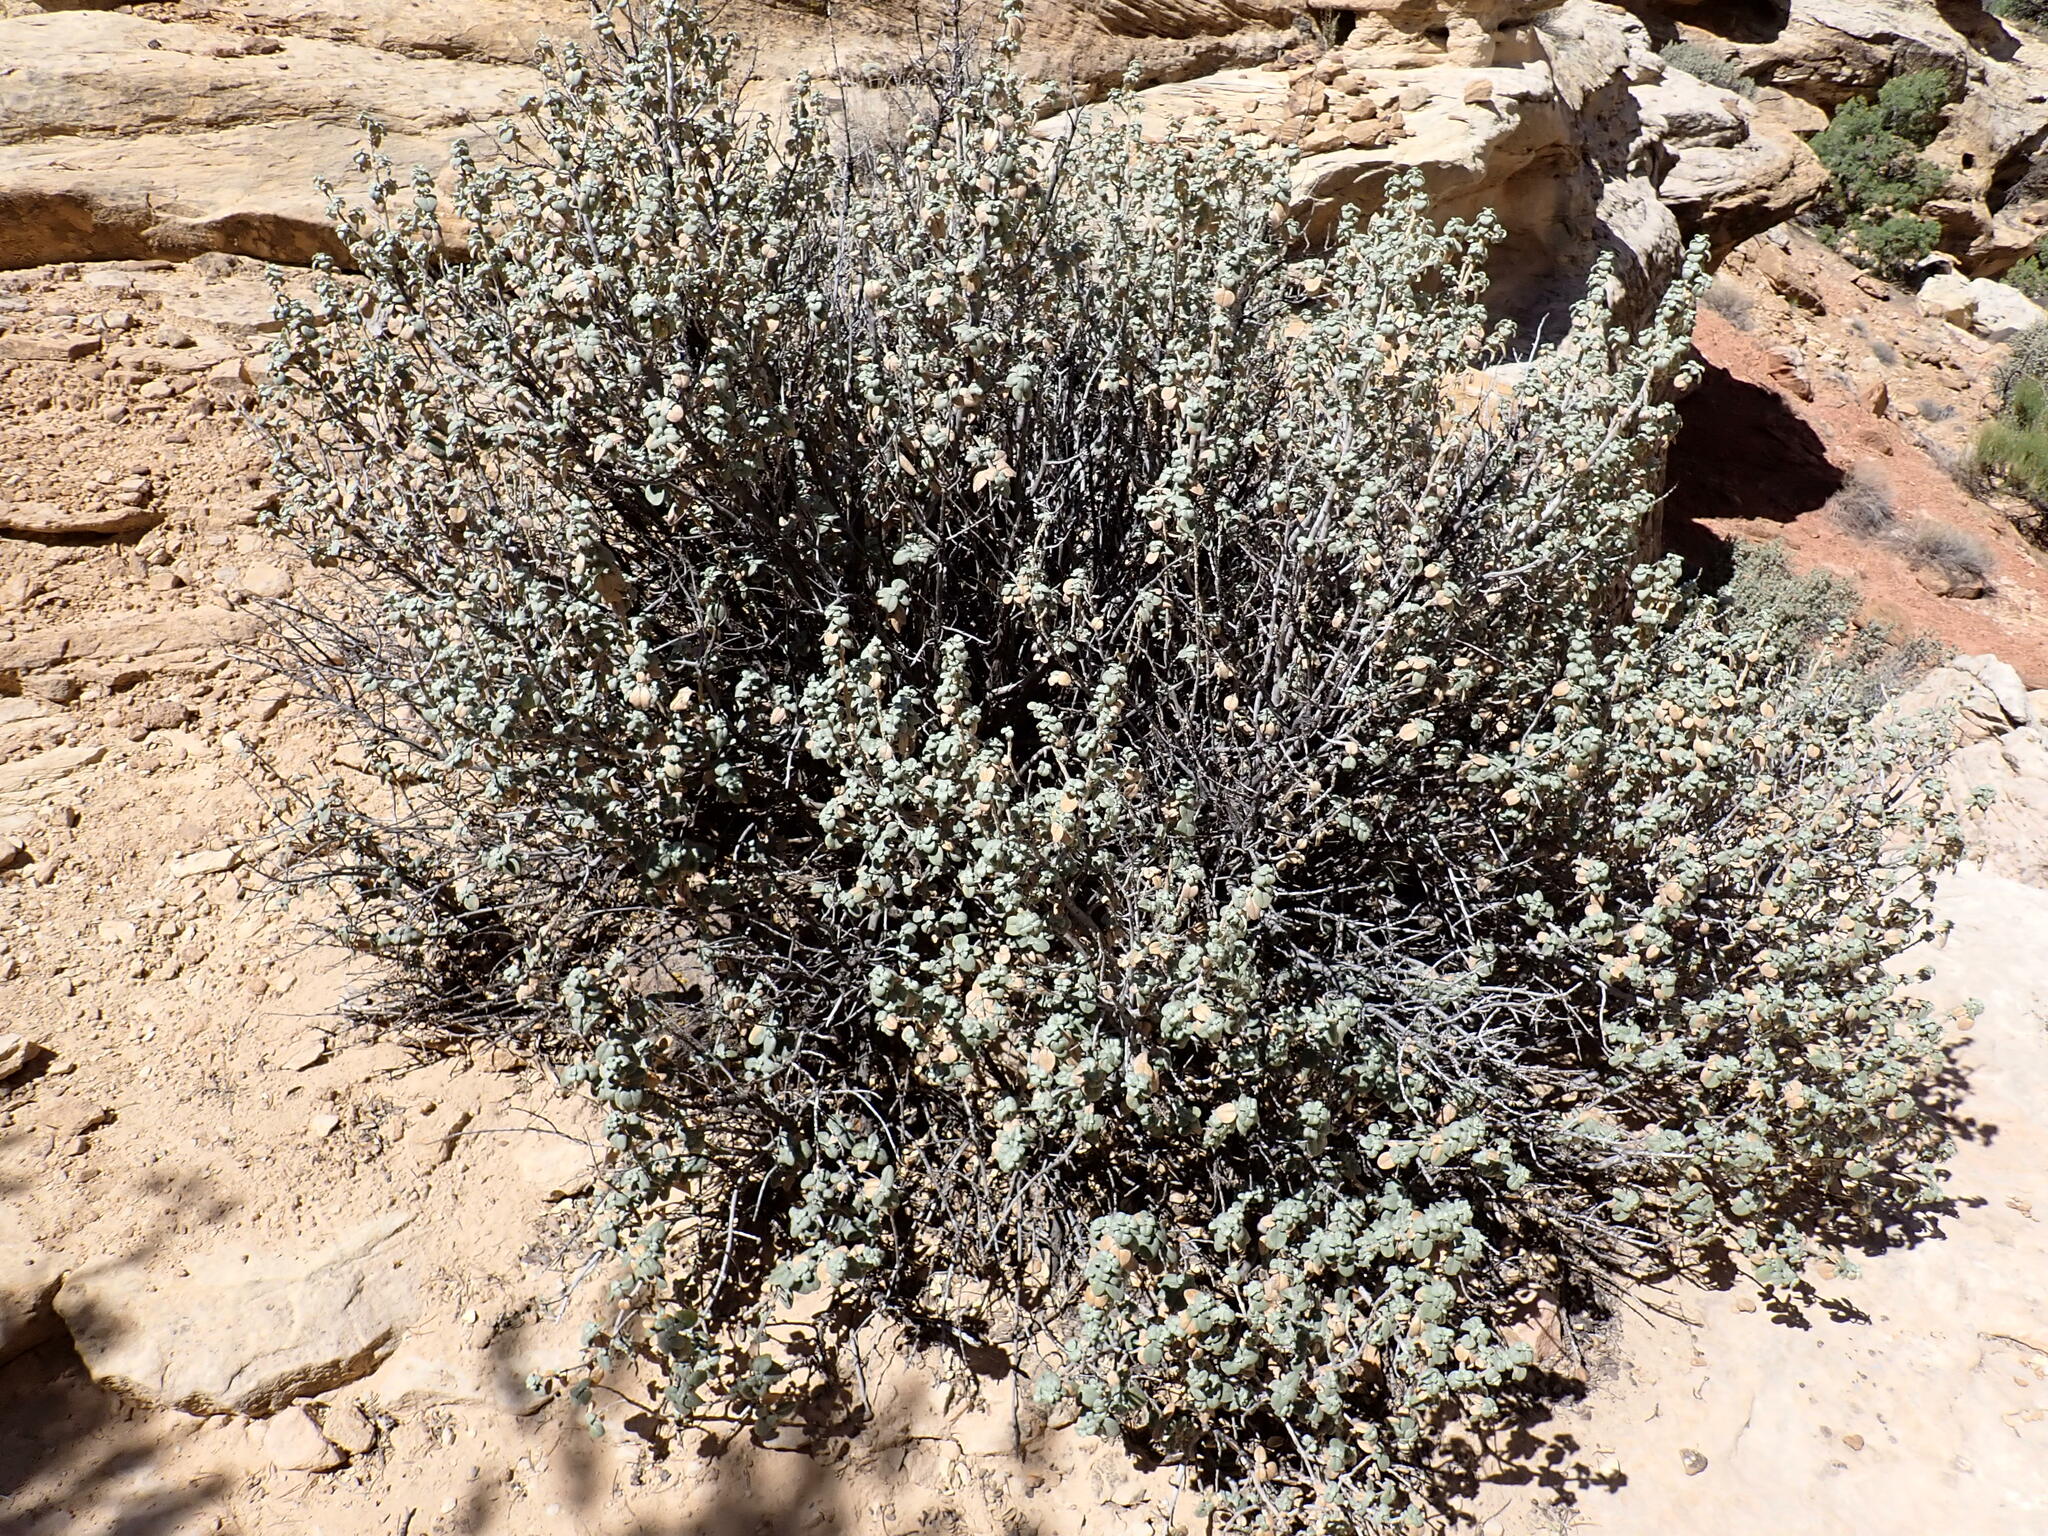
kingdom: Plantae
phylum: Tracheophyta
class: Magnoliopsida
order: Rosales
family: Elaeagnaceae
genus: Shepherdia
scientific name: Shepherdia rotundifolia
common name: Silverscale
